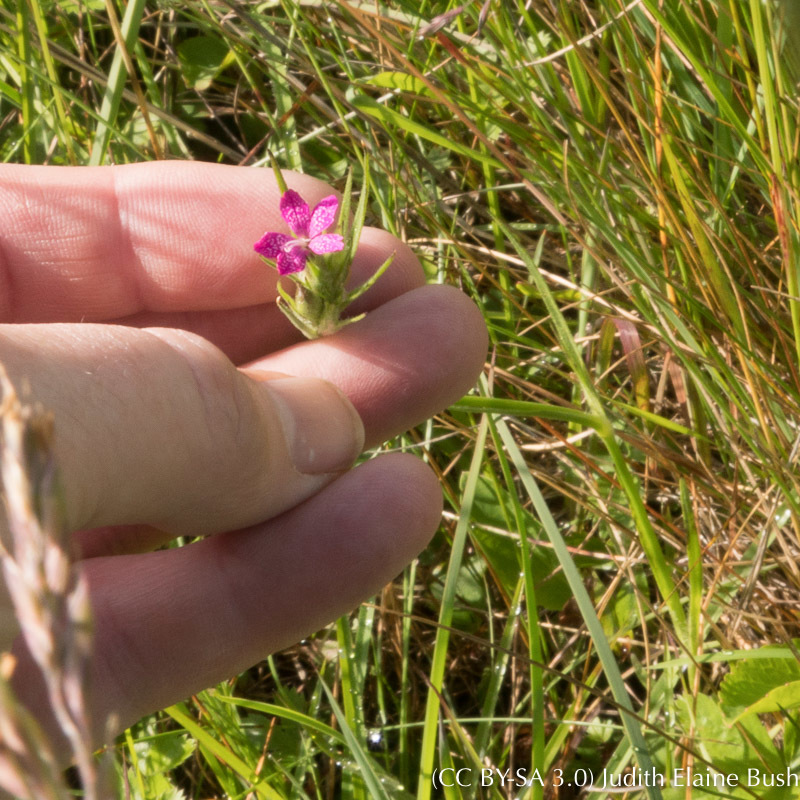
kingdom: Plantae
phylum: Tracheophyta
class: Magnoliopsida
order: Caryophyllales
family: Caryophyllaceae
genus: Dianthus
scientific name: Dianthus armeria
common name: Deptford pink
